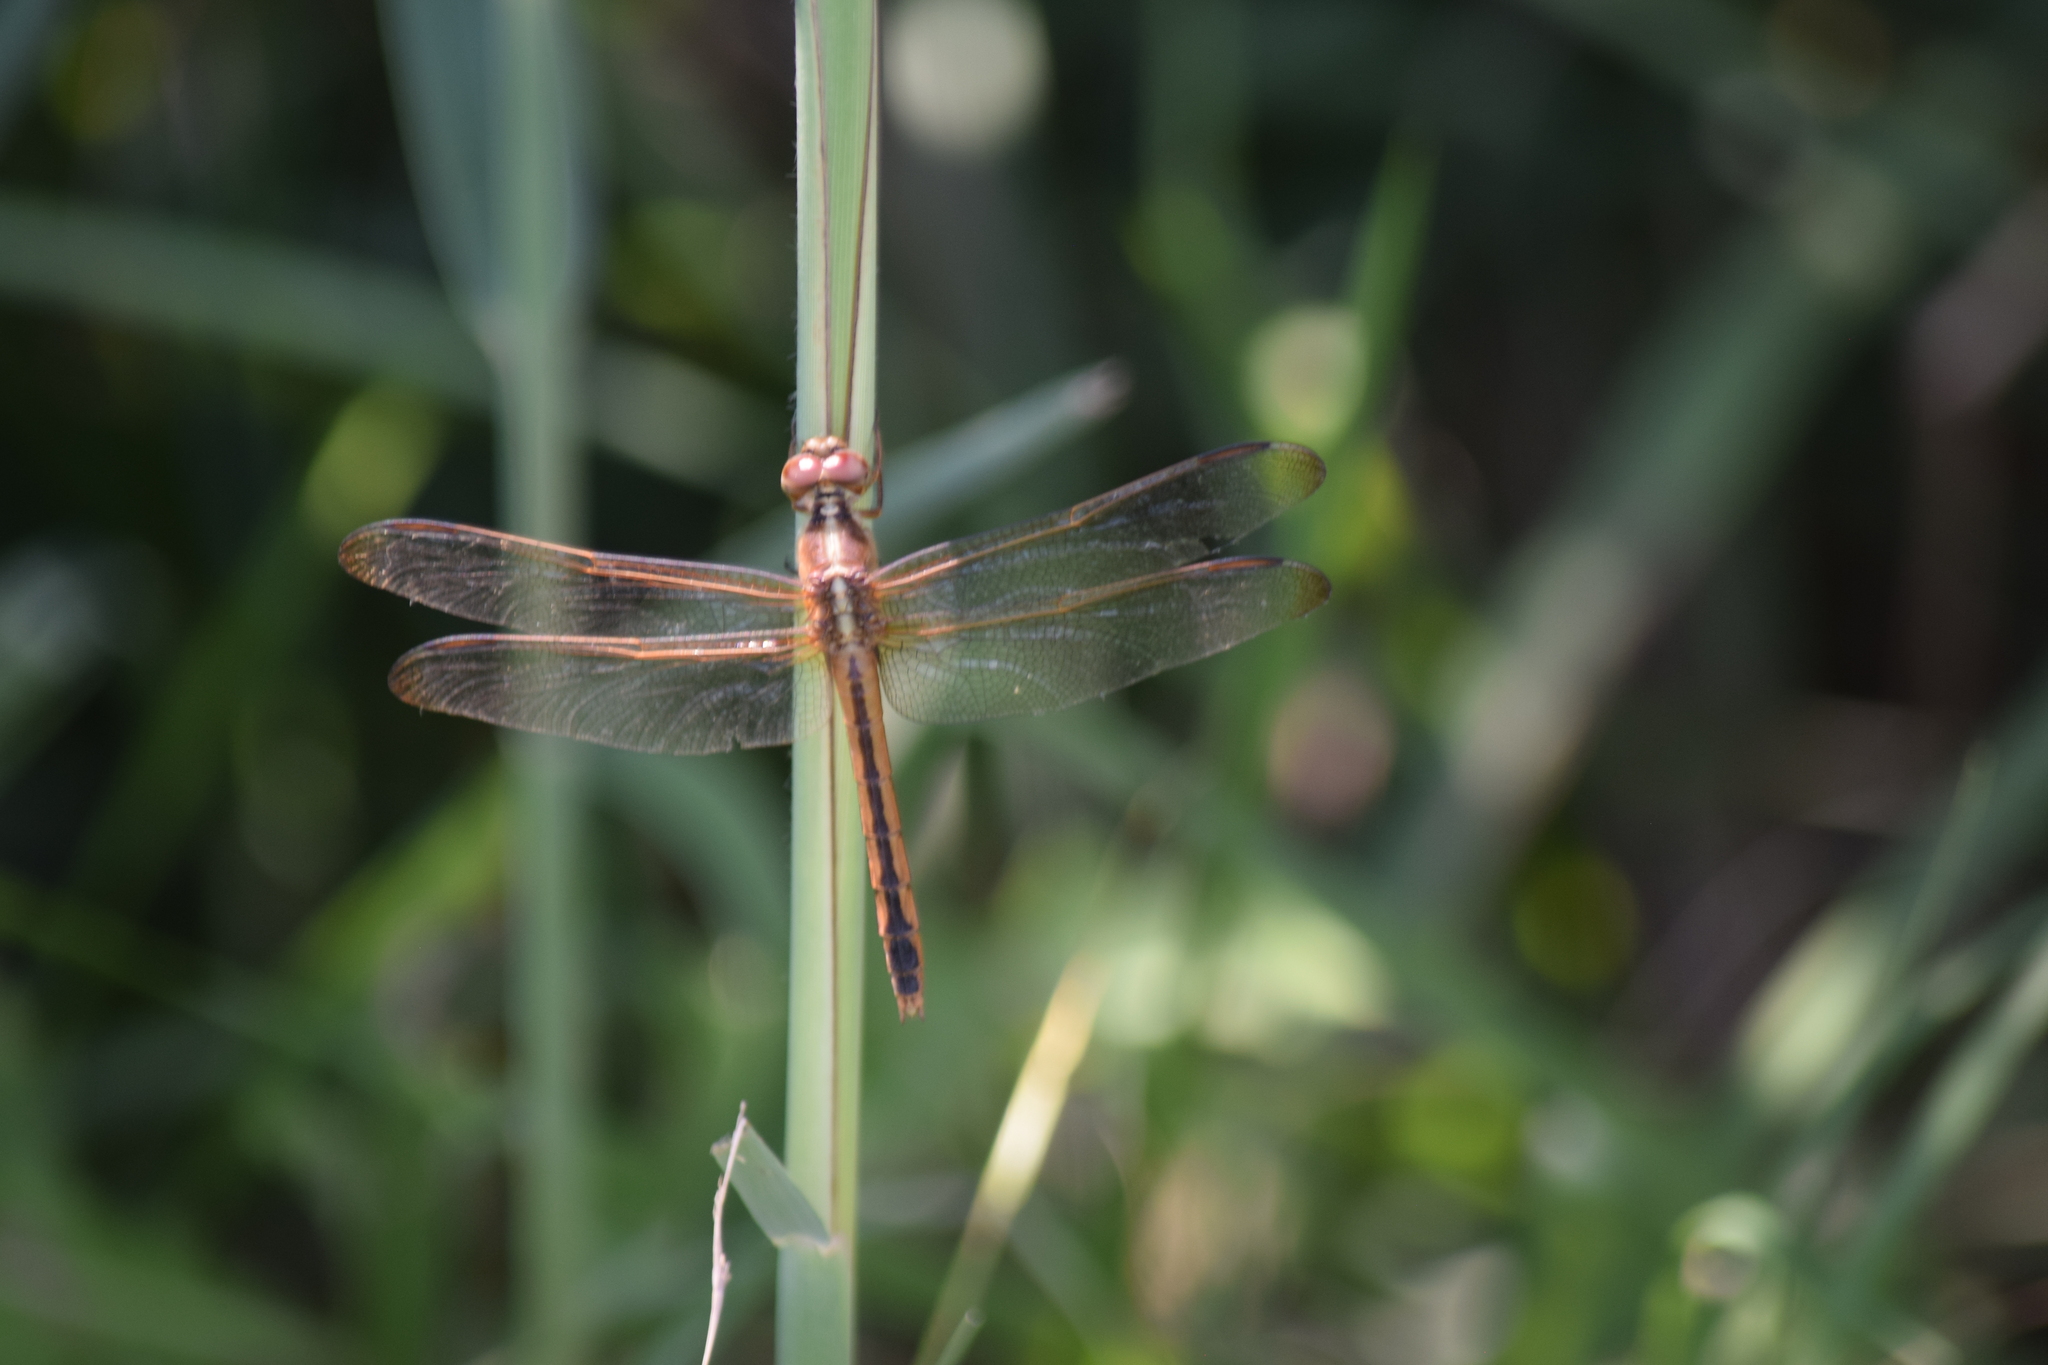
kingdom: Animalia
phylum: Arthropoda
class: Insecta
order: Odonata
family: Libellulidae
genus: Libellula
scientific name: Libellula needhami
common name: Needham's skimmer
